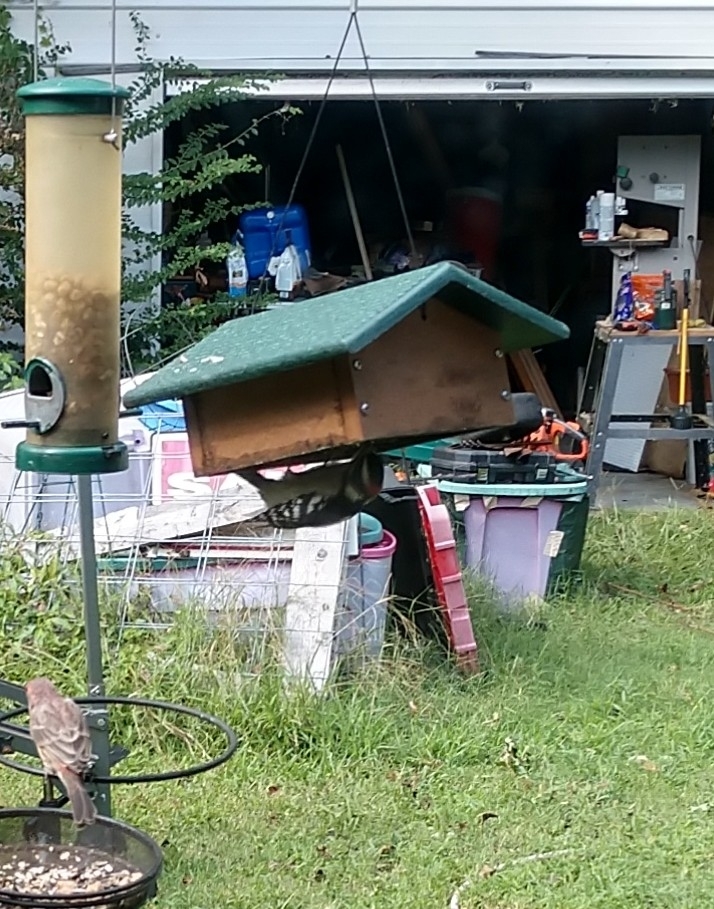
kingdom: Animalia
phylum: Chordata
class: Aves
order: Piciformes
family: Picidae
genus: Dryobates
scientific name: Dryobates pubescens
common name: Downy woodpecker
